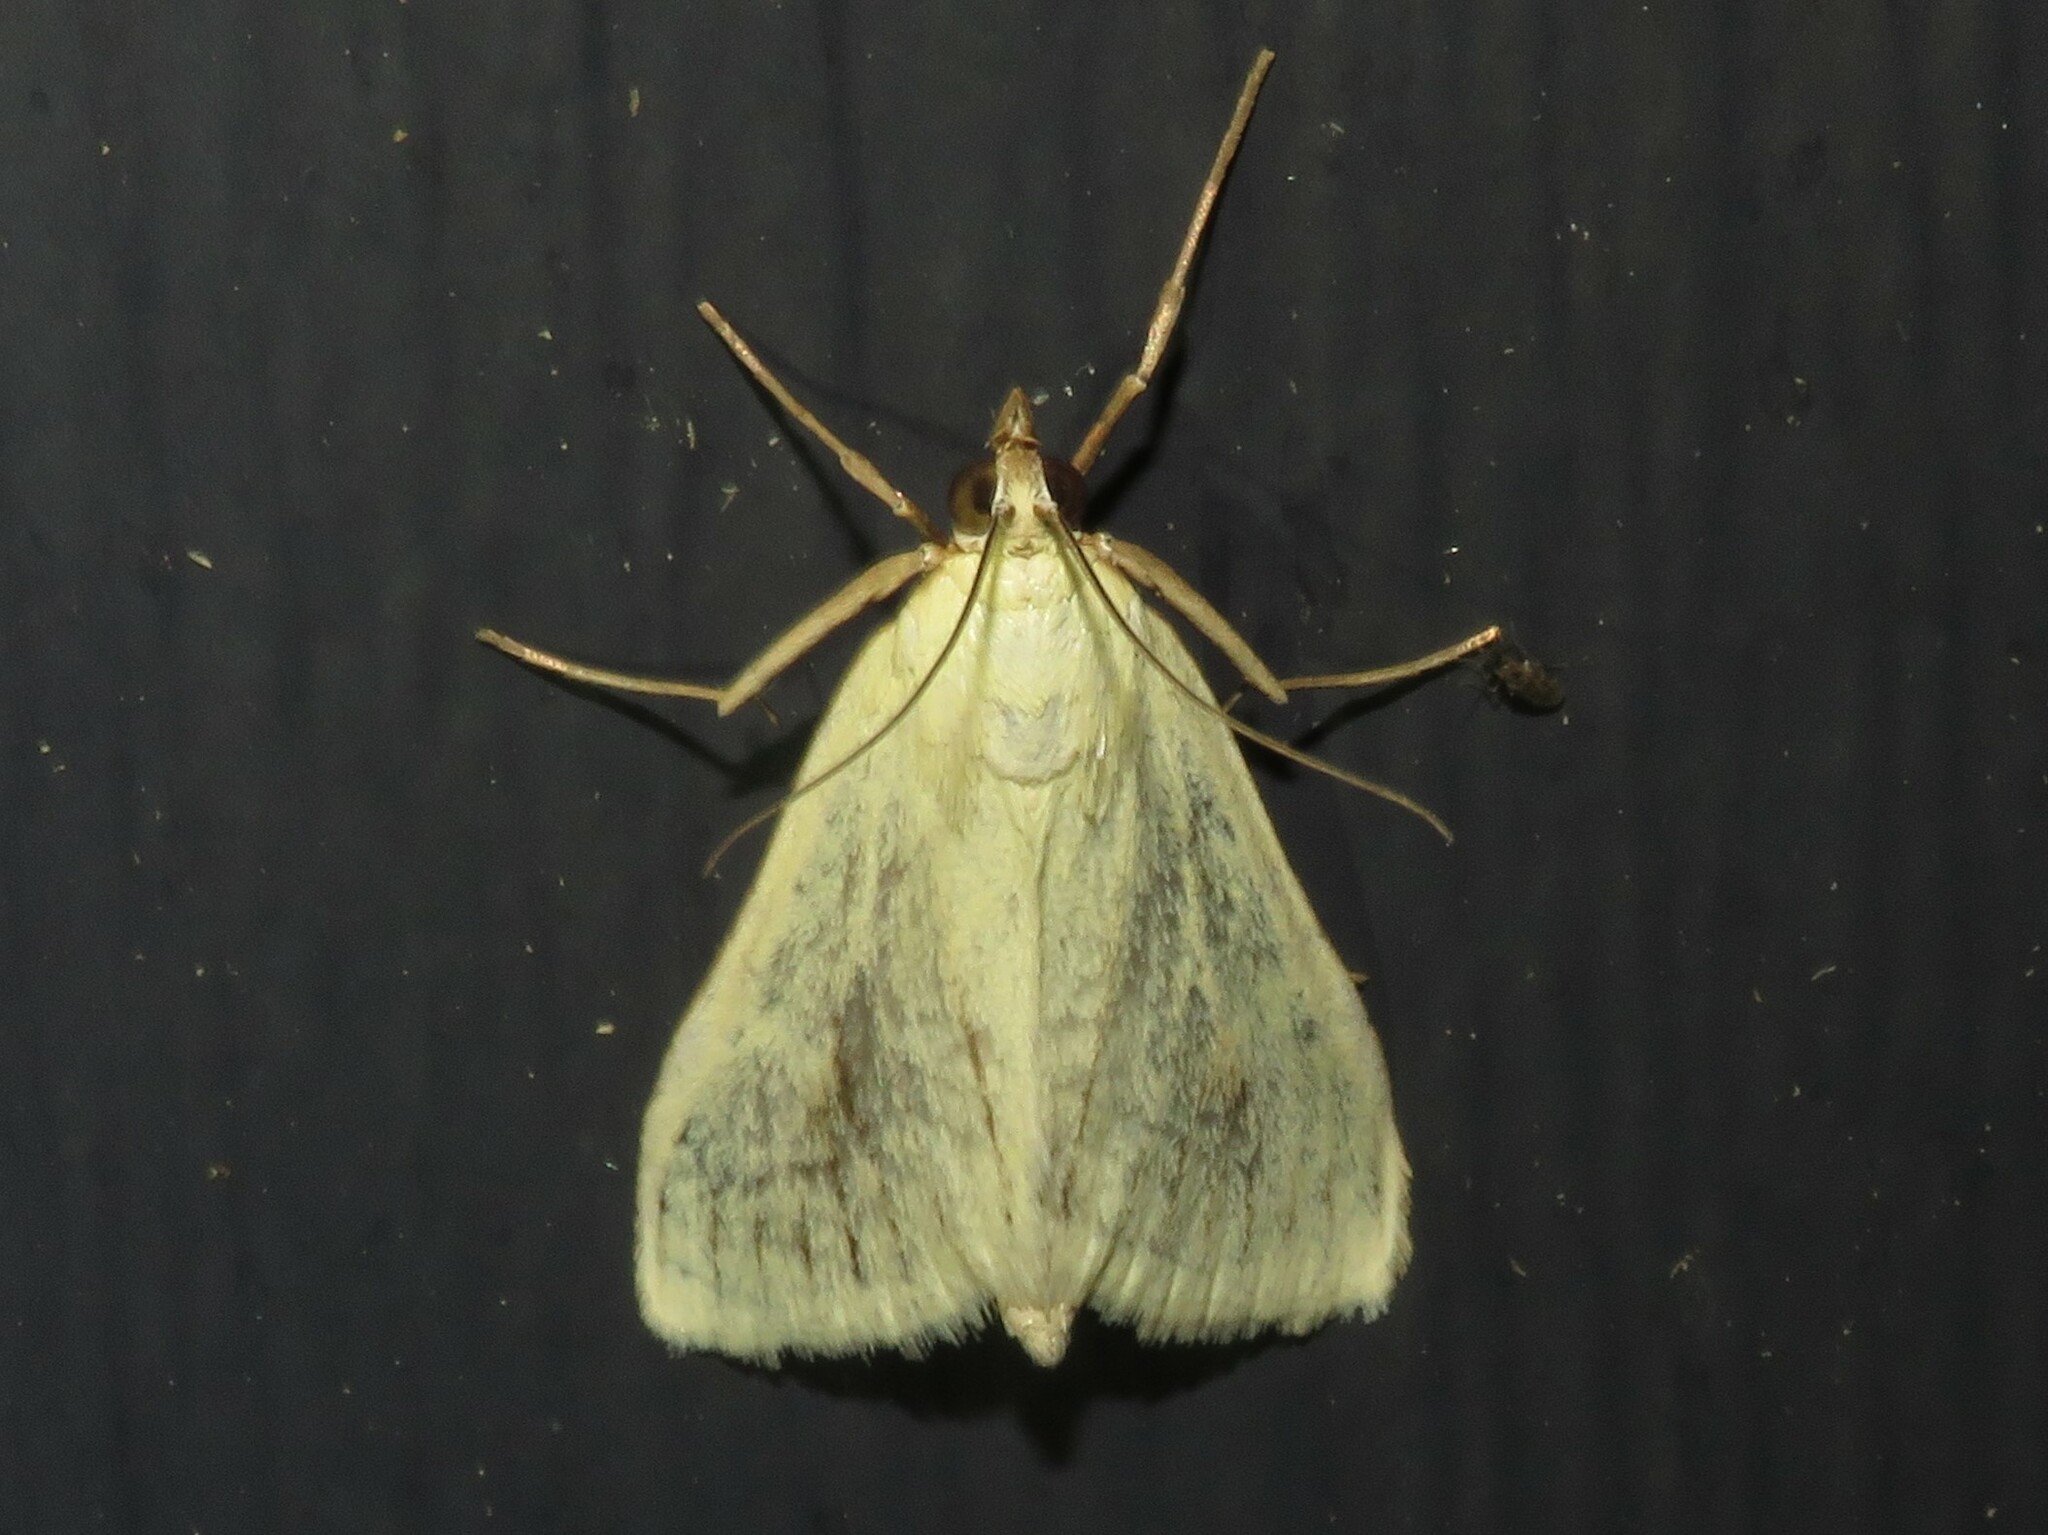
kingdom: Animalia
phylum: Arthropoda
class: Insecta
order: Lepidoptera
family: Crambidae
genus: Sitochroa
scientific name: Sitochroa palealis
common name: Greenish-yellow sitochroa moth
